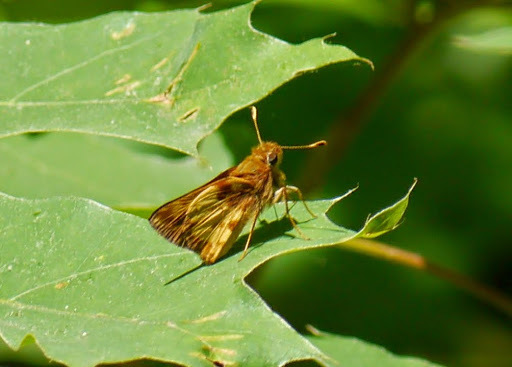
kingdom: Animalia
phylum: Arthropoda
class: Insecta
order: Lepidoptera
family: Hesperiidae
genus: Lon
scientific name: Lon zabulon
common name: Zabulon skipper
